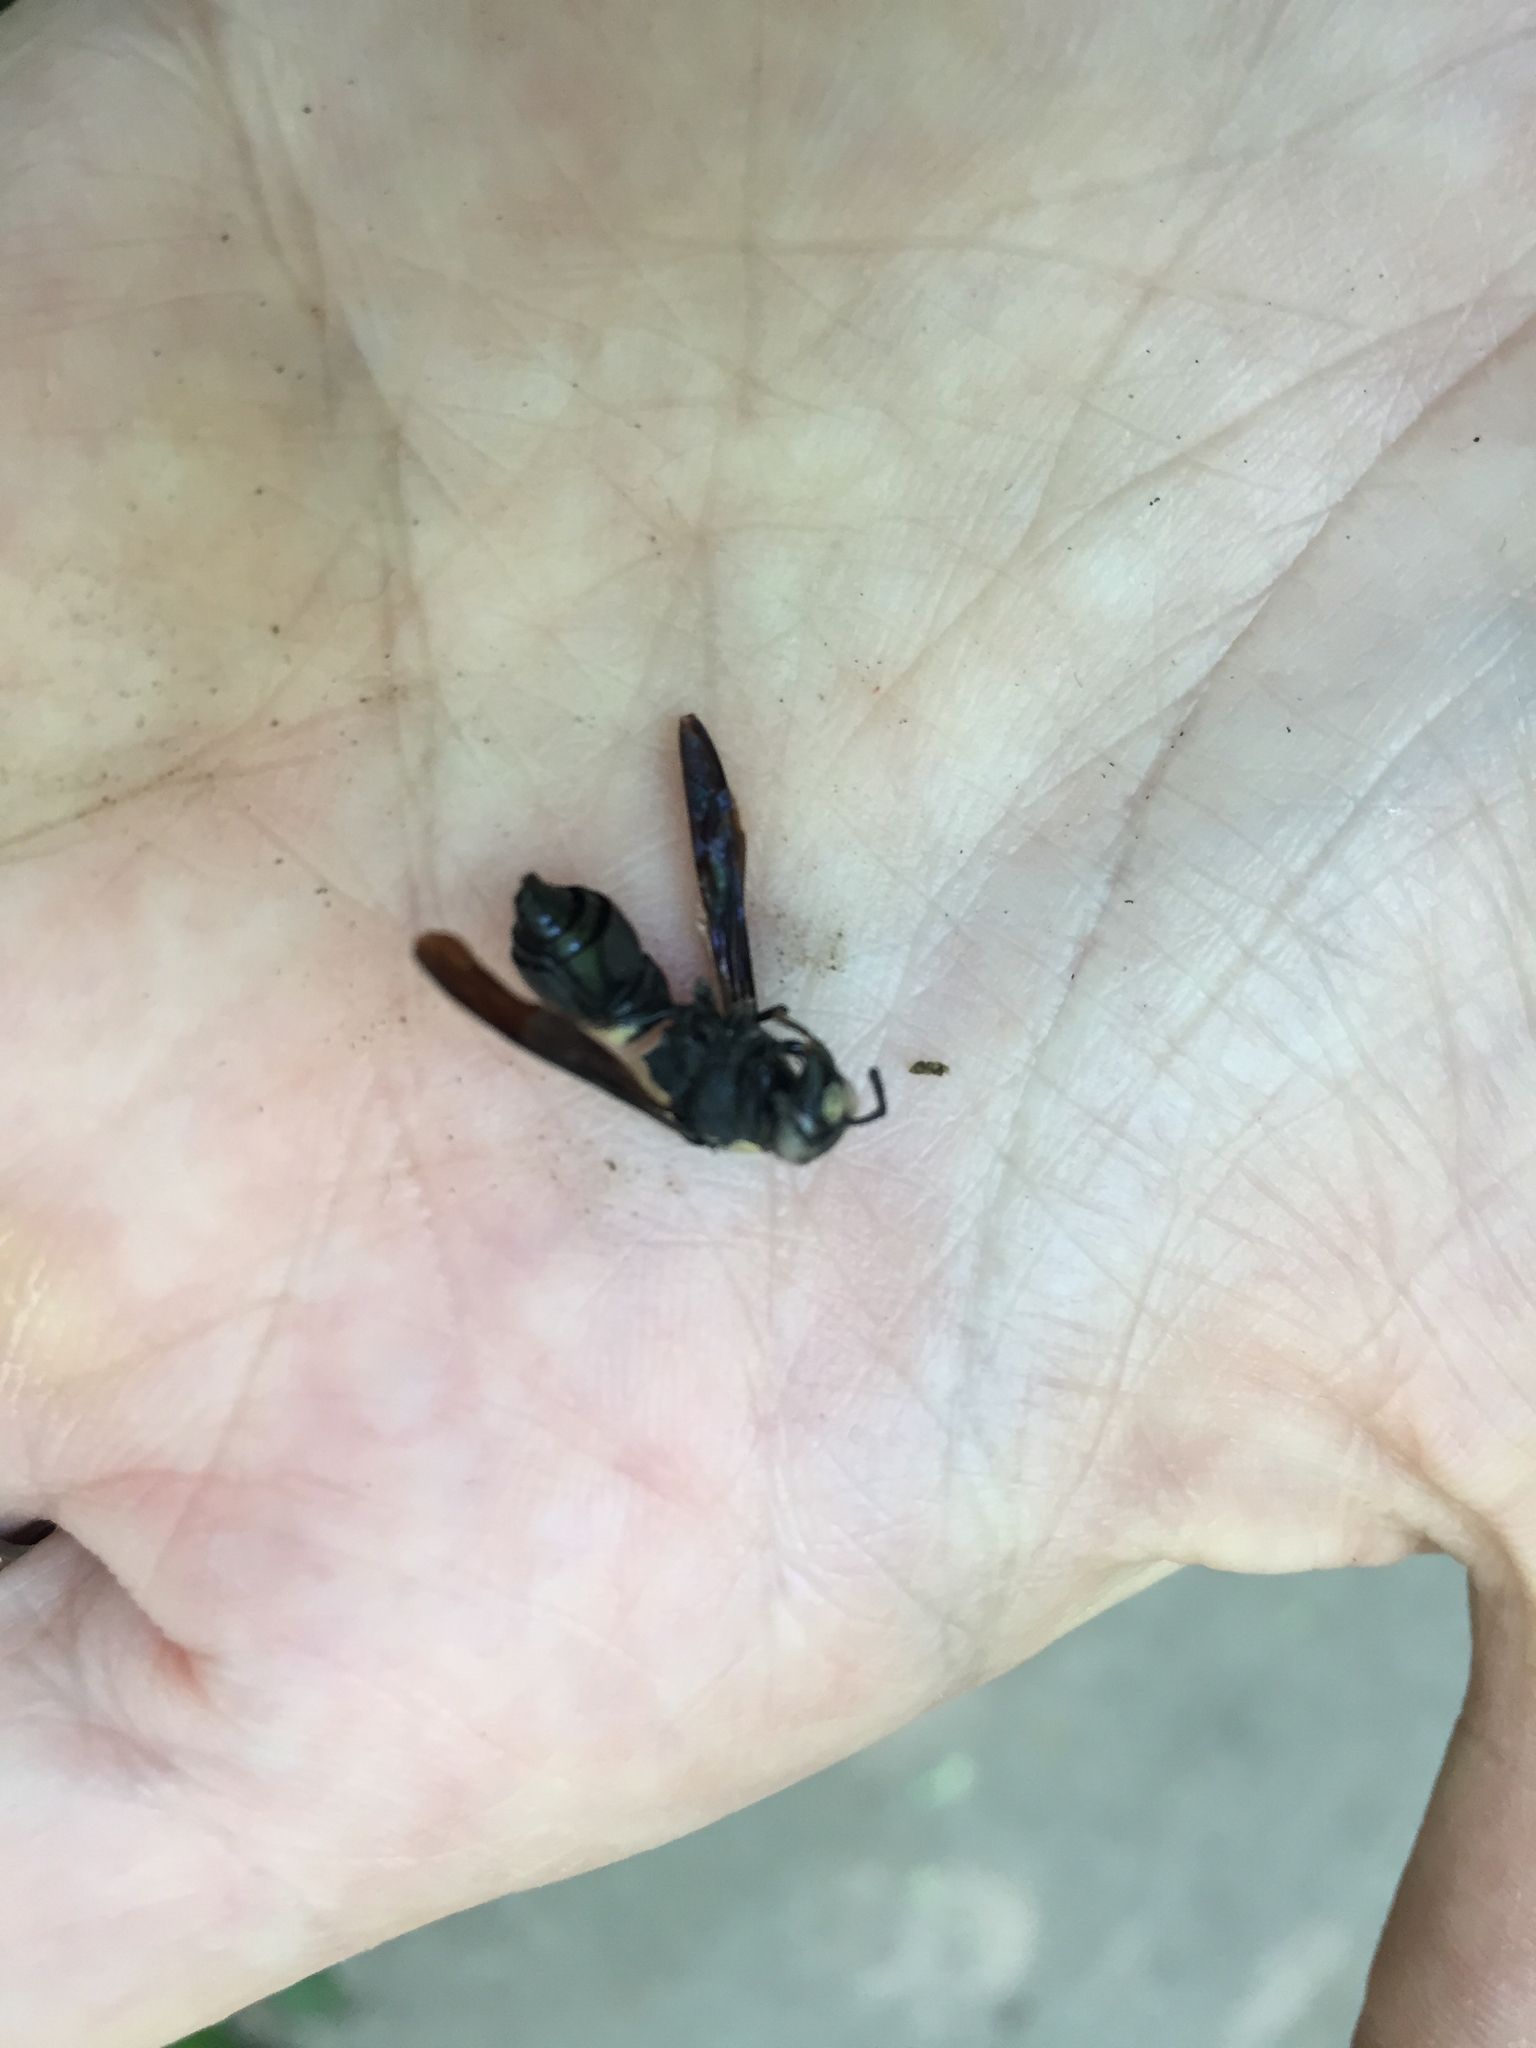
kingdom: Animalia
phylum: Arthropoda
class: Insecta
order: Hymenoptera
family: Eumenidae
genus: Monobia
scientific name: Monobia quadridens
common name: Four-toothed mason wasp
